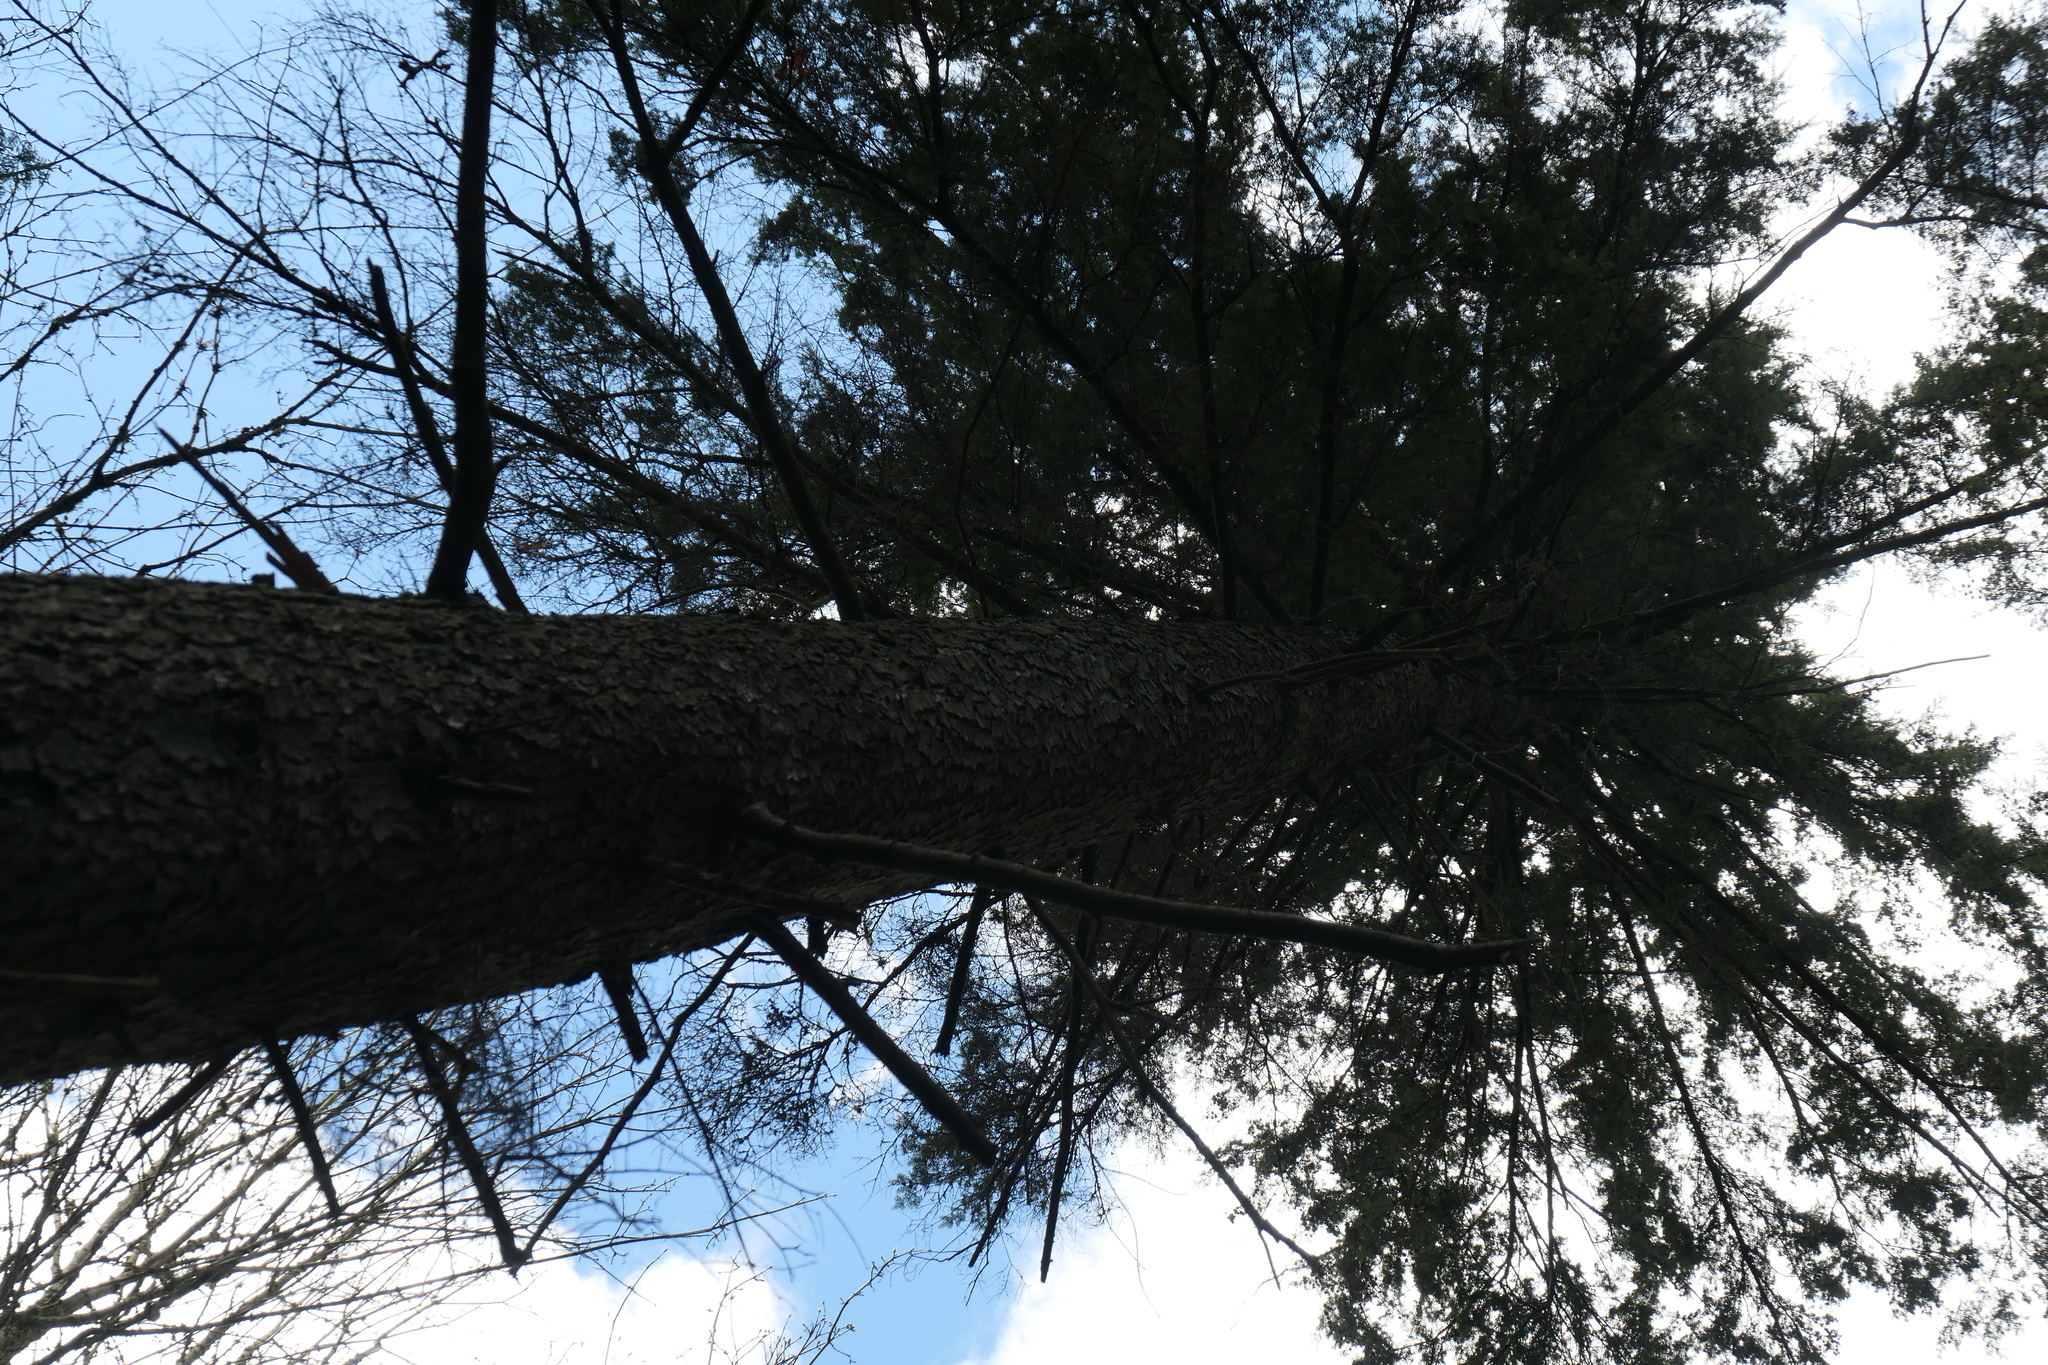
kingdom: Plantae
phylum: Tracheophyta
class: Pinopsida
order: Pinales
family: Pinaceae
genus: Tsuga
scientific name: Tsuga heterophylla
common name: Western hemlock
